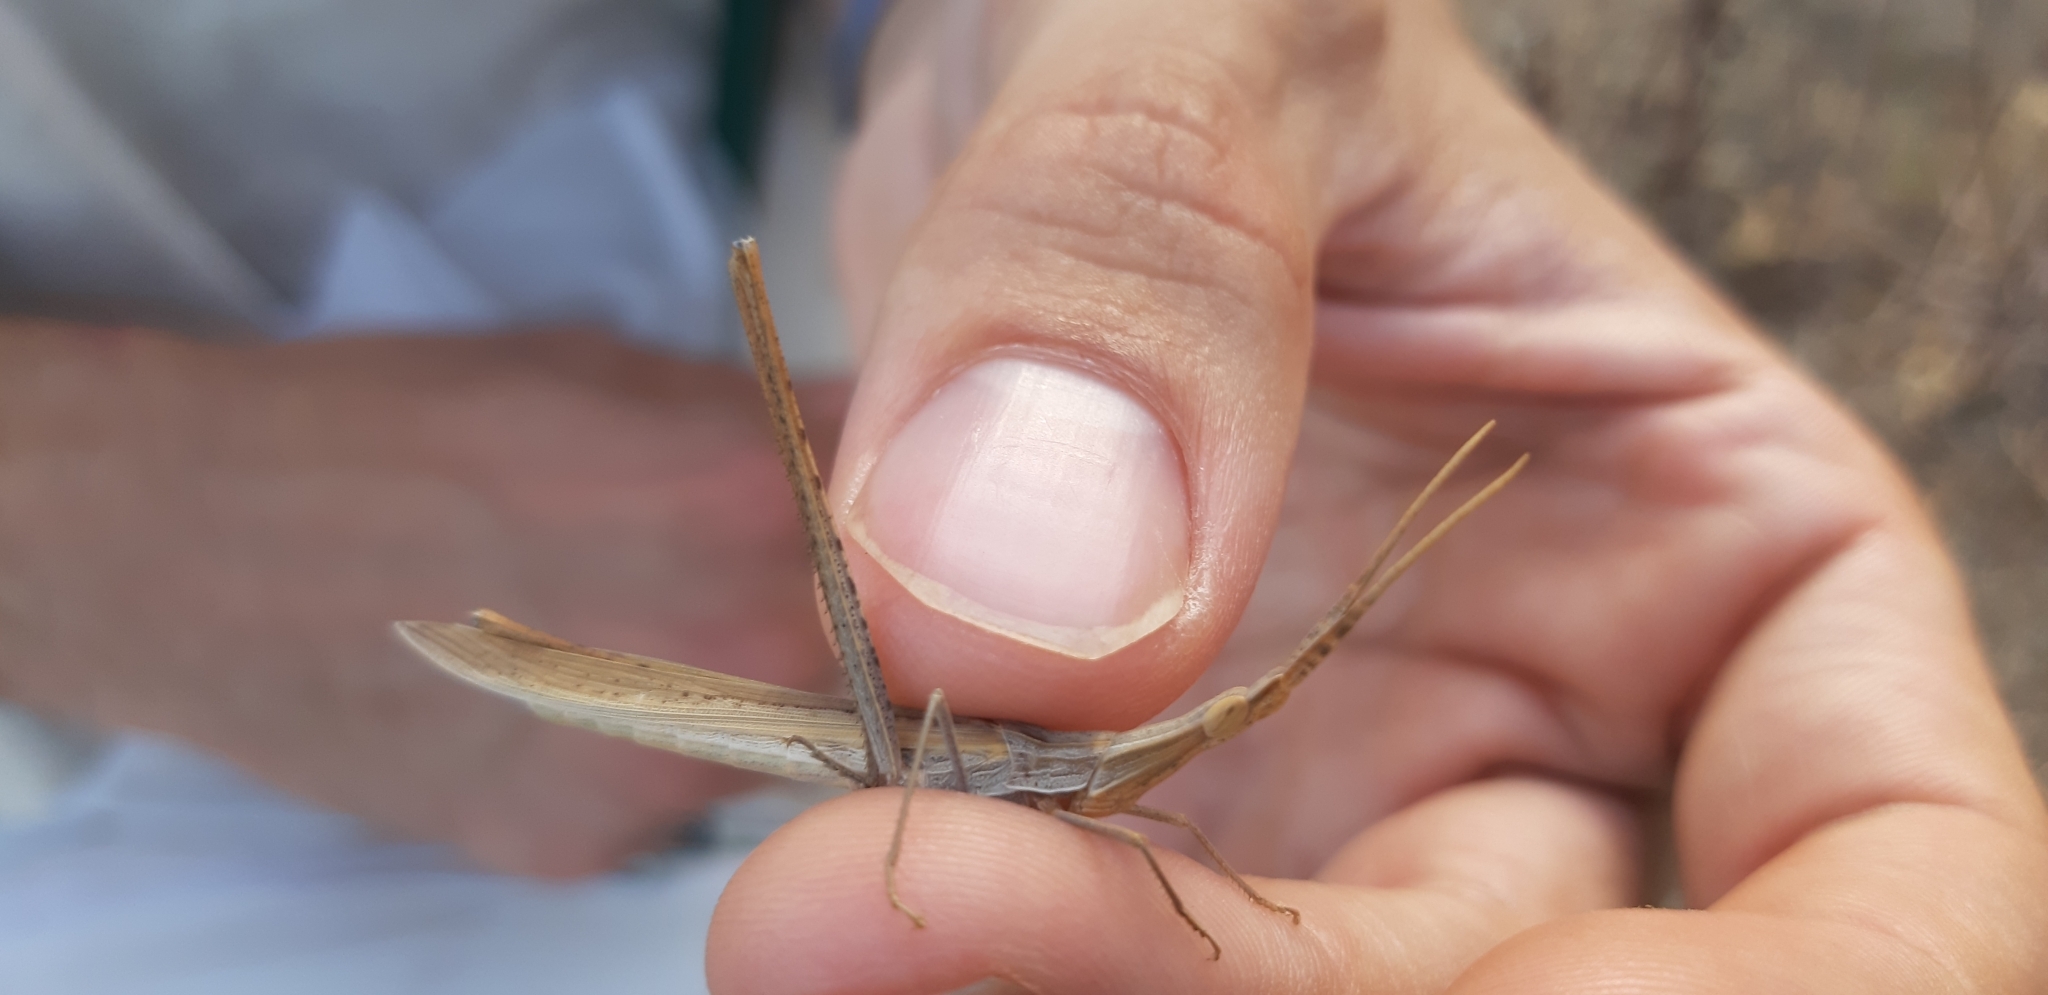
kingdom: Animalia
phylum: Arthropoda
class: Insecta
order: Orthoptera
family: Acrididae
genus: Acrida
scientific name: Acrida ungarica
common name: Common cone-headed grasshopper
